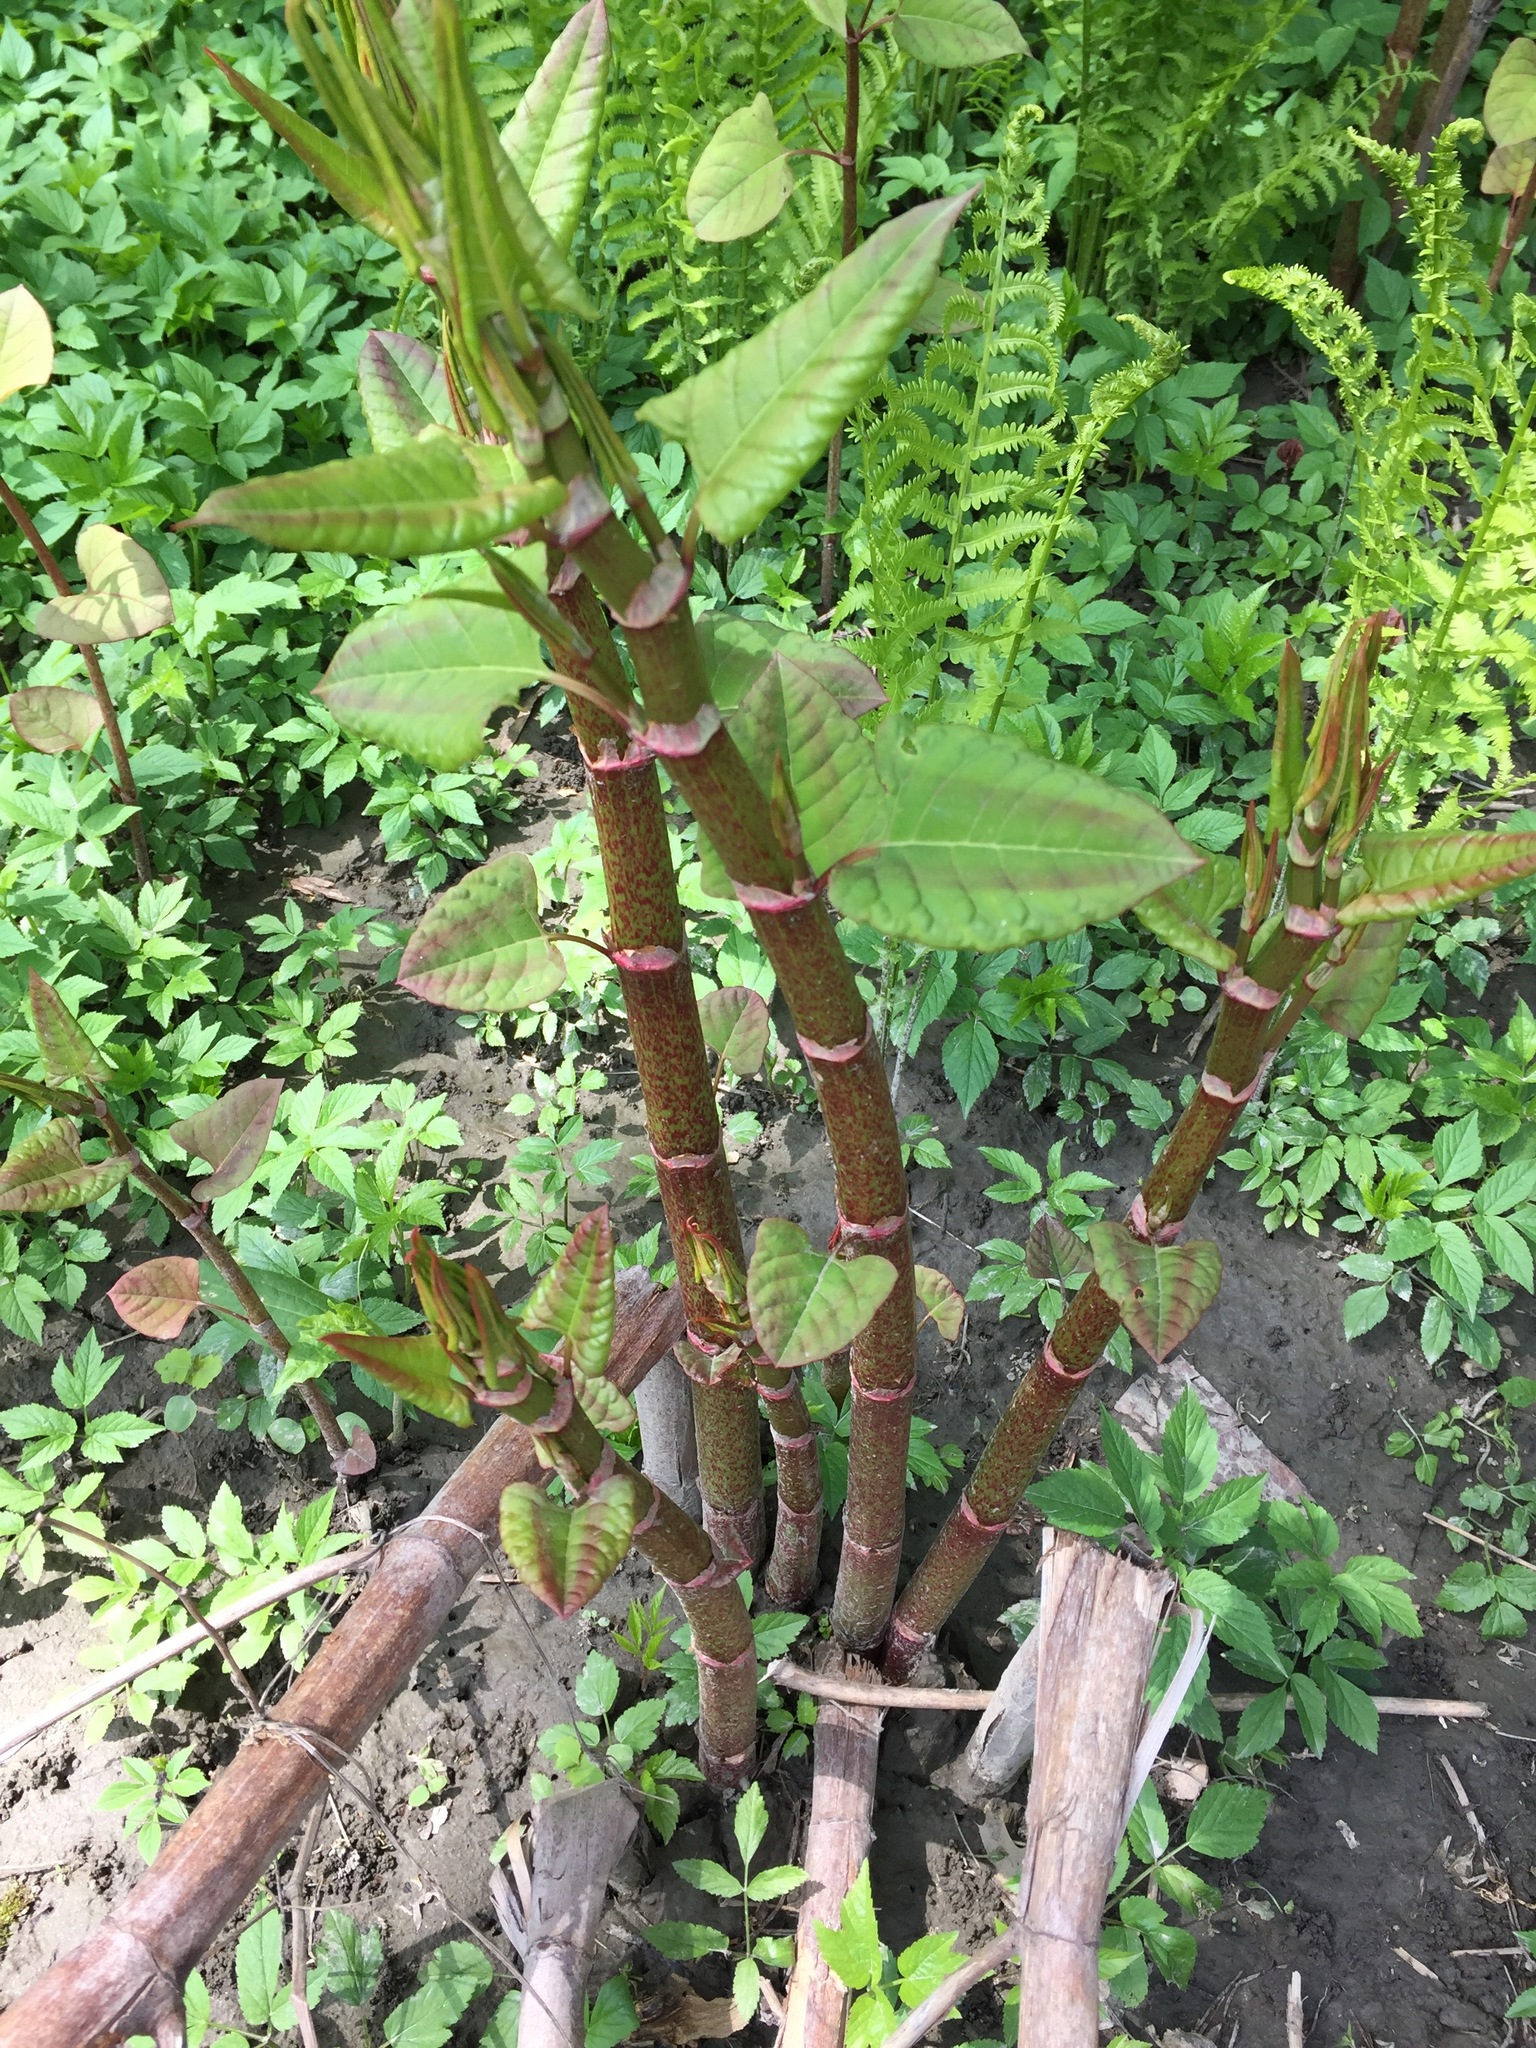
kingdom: Plantae
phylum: Tracheophyta
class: Magnoliopsida
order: Caryophyllales
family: Polygonaceae
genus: Reynoutria
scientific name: Reynoutria japonica
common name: Japanese knotweed
